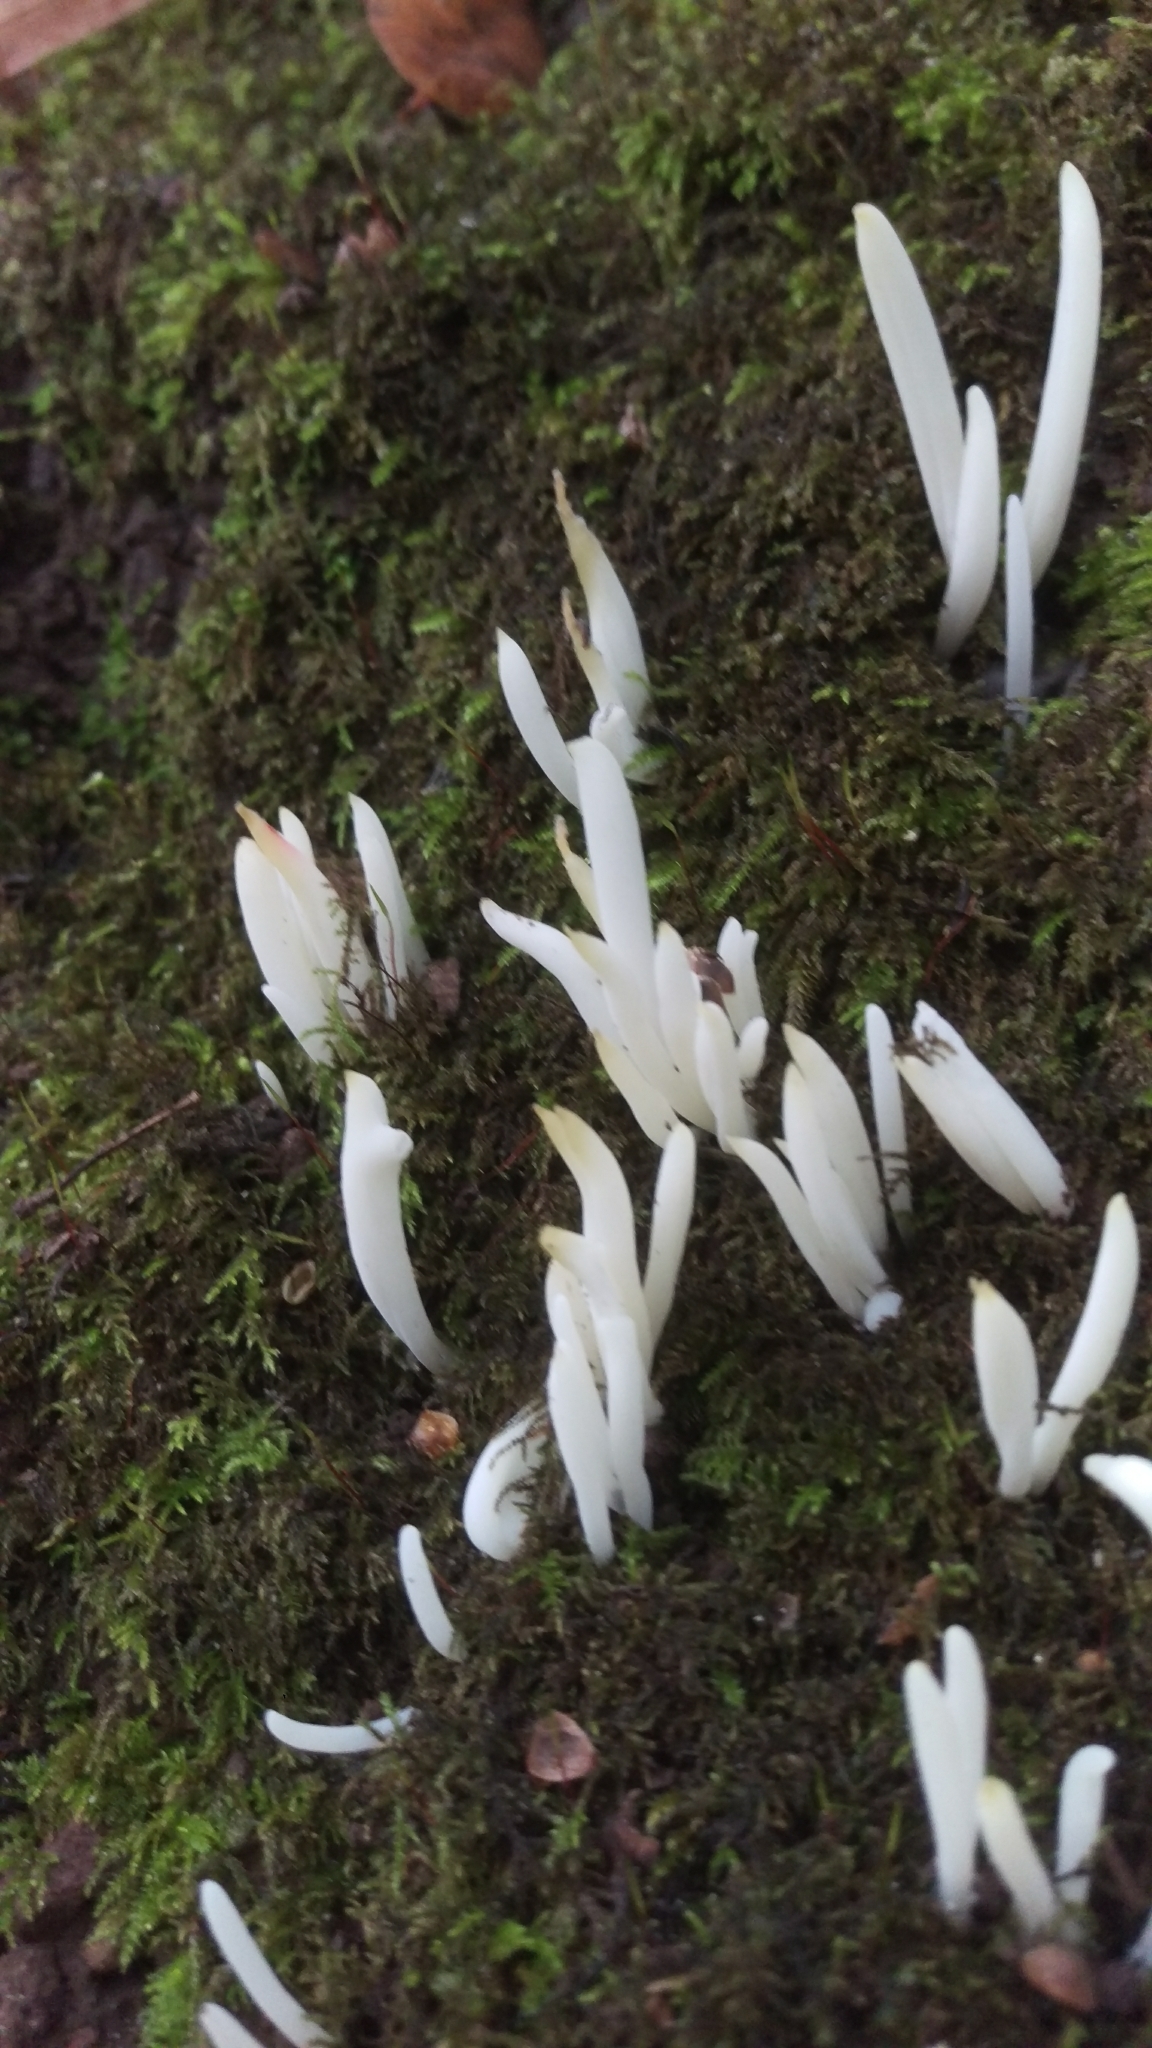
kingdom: Fungi
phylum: Basidiomycota
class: Agaricomycetes
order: Agaricales
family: Clavariaceae
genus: Clavaria
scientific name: Clavaria fragilis
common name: White spindles
